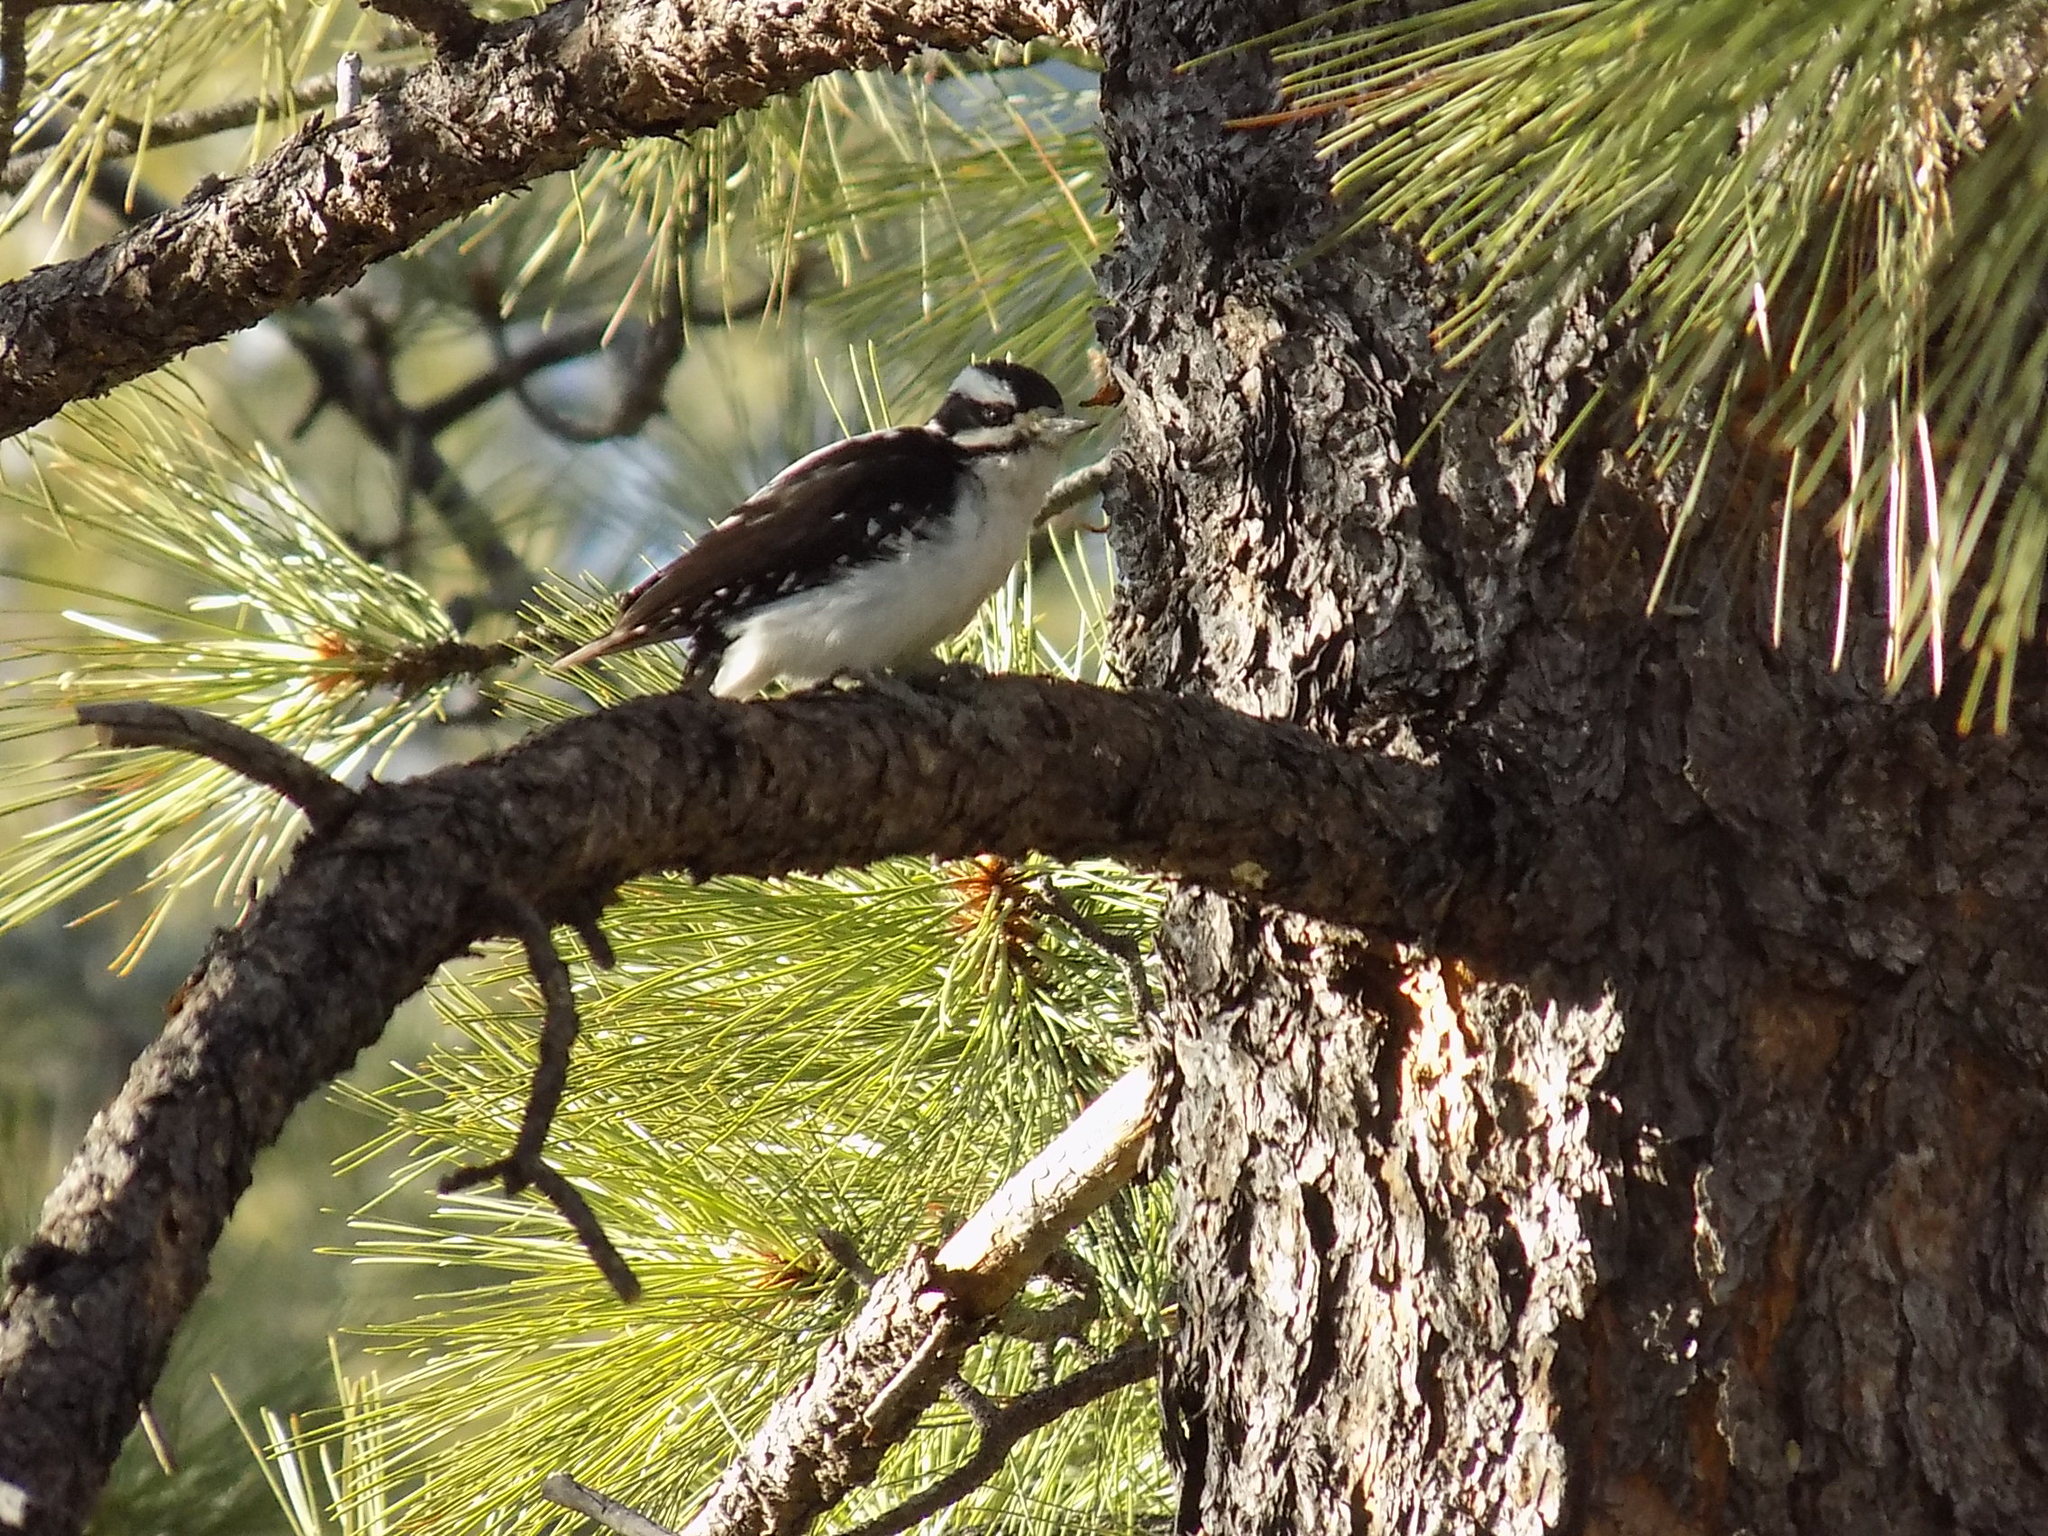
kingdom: Animalia
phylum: Chordata
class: Aves
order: Piciformes
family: Picidae
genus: Leuconotopicus
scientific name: Leuconotopicus villosus
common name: Hairy woodpecker
